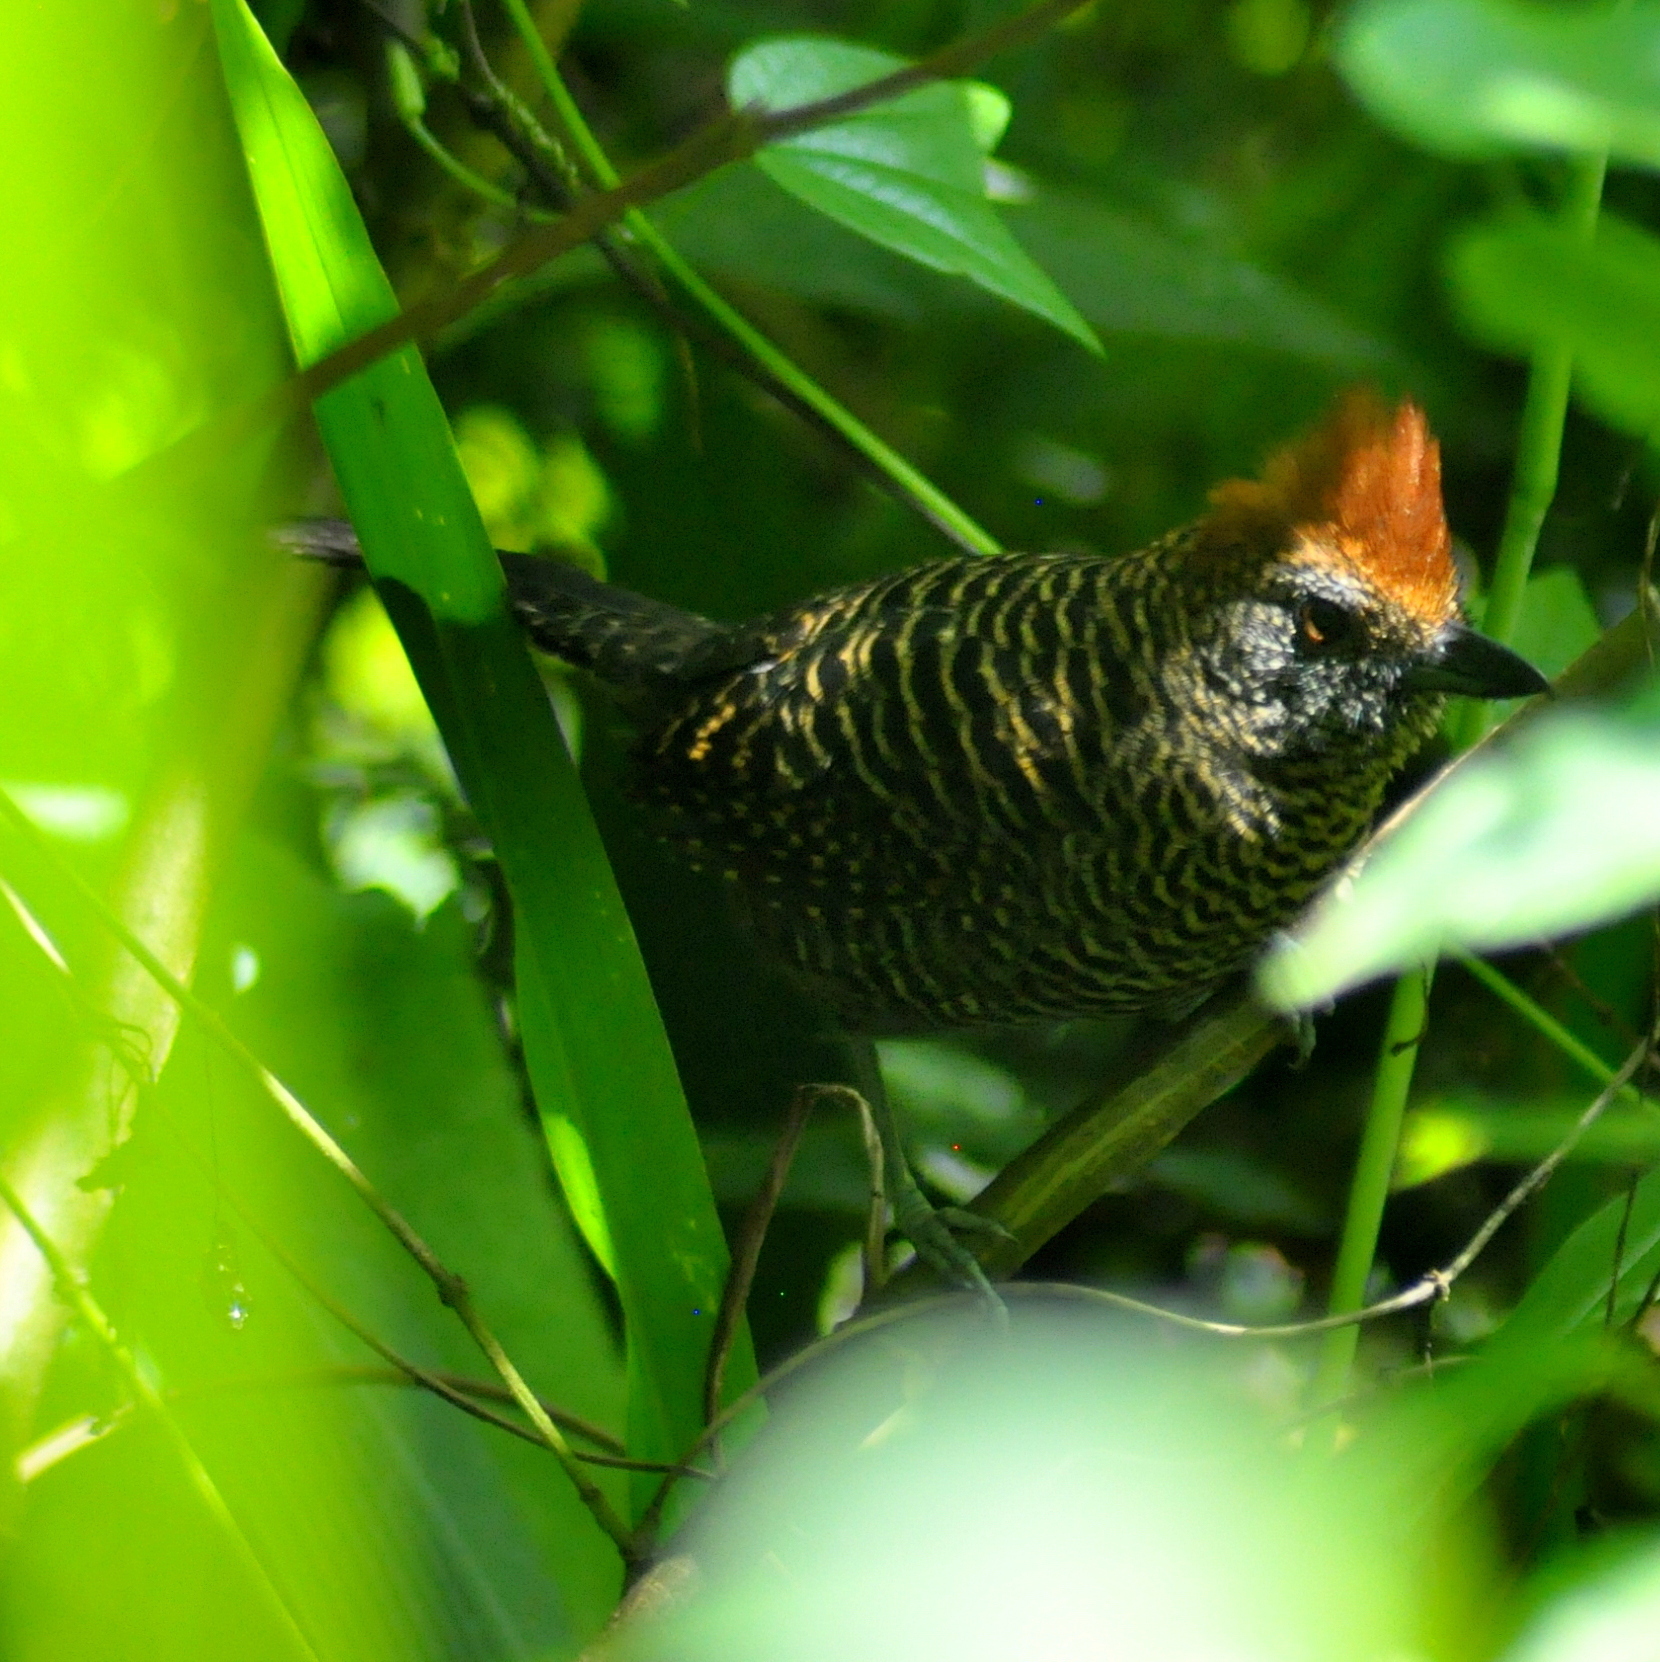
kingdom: Animalia
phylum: Chordata
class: Aves
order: Passeriformes
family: Thamnophilidae
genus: Mackenziaena
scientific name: Mackenziaena severa
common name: Tufted antshrike
